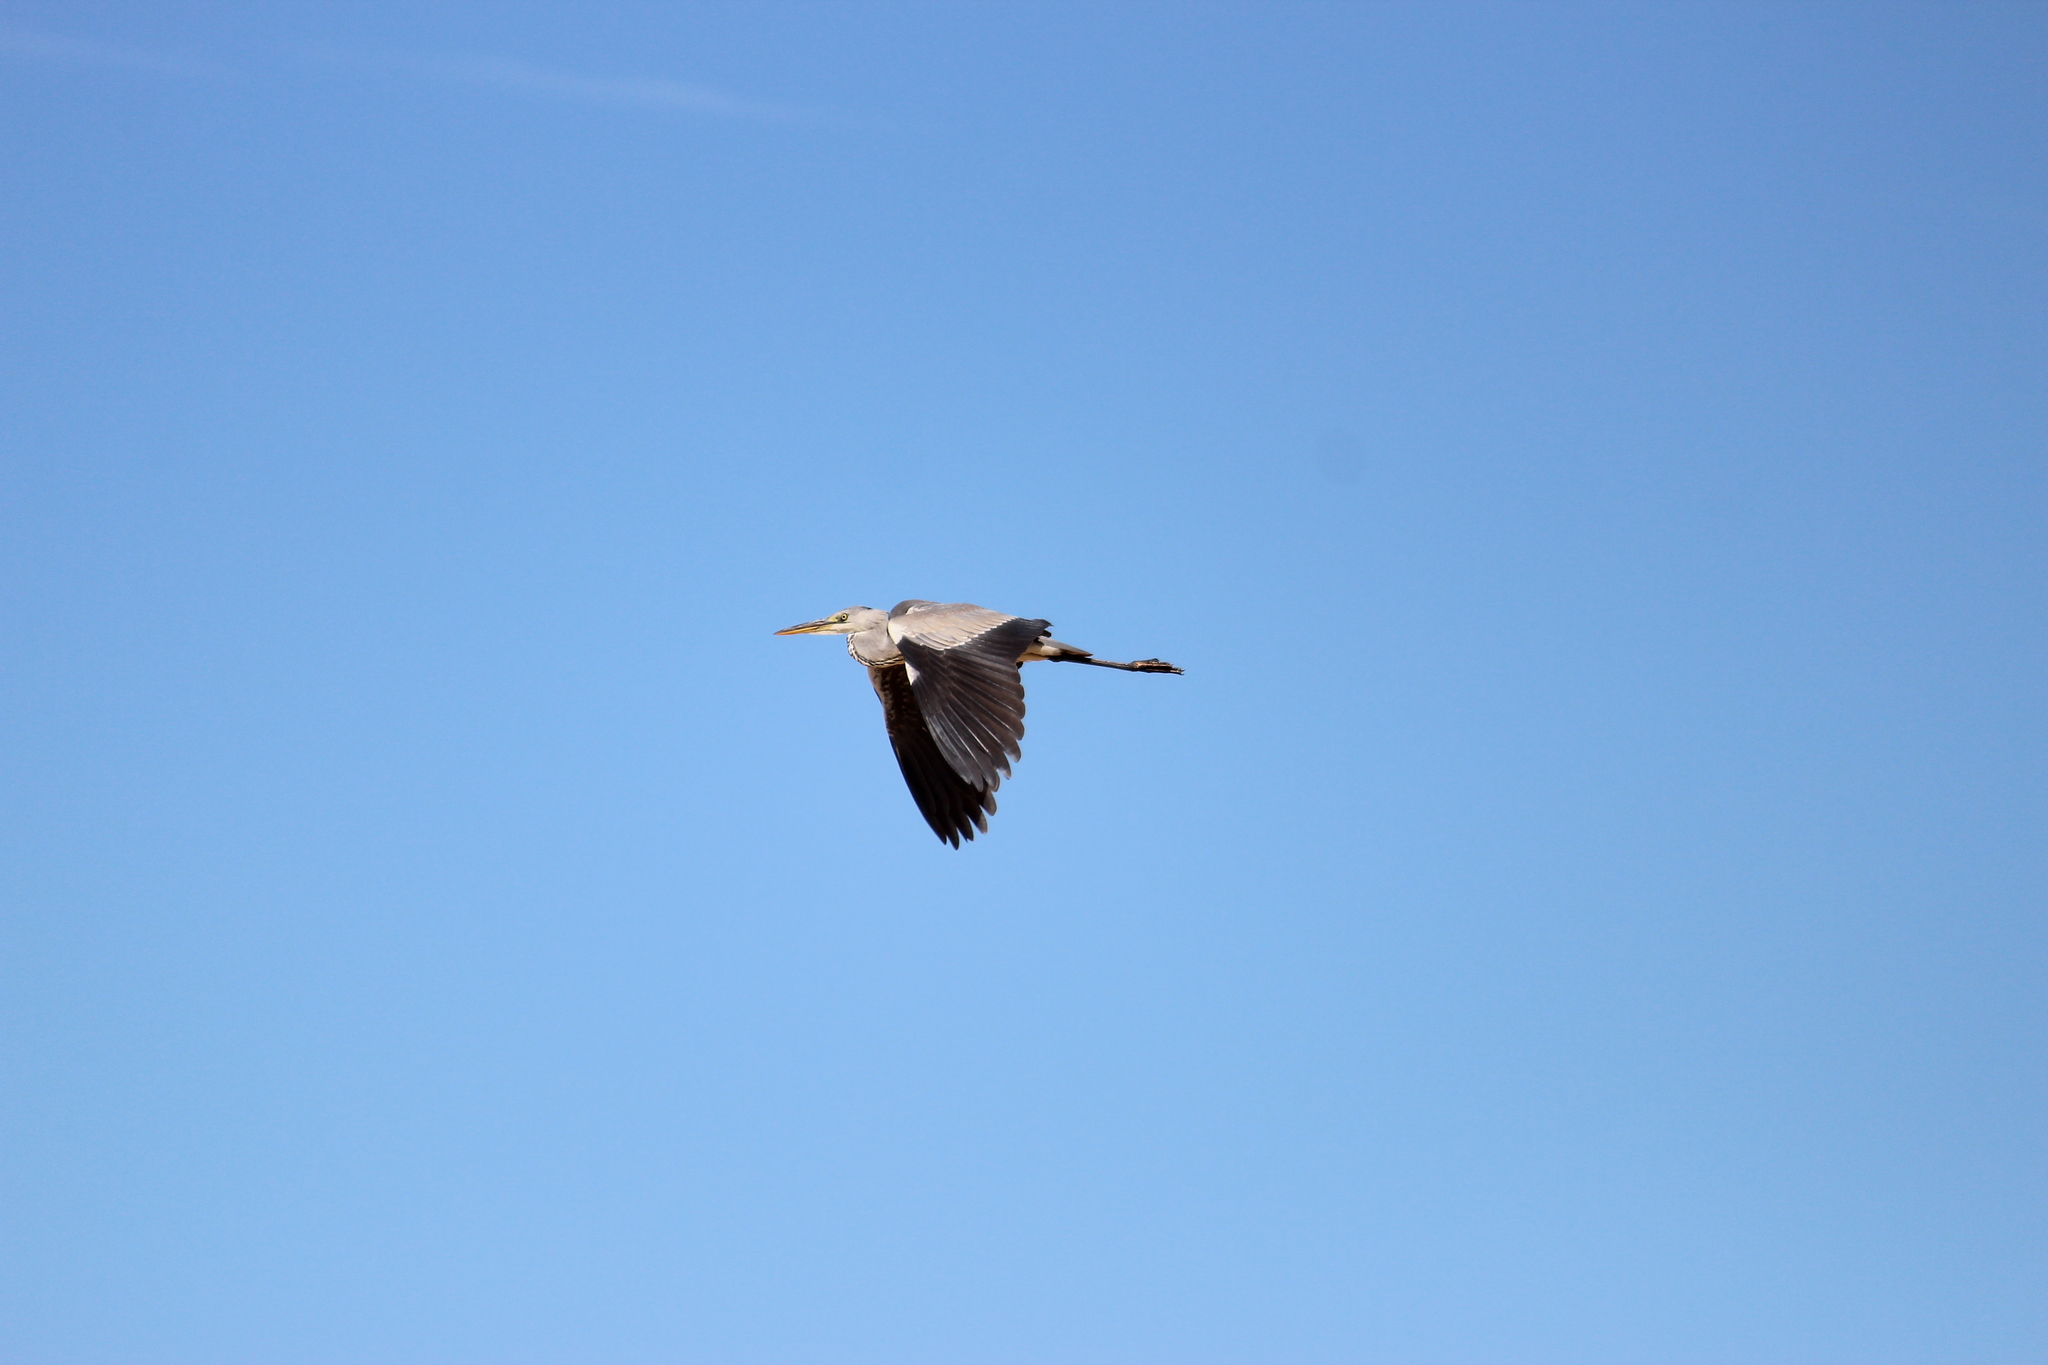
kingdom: Animalia
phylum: Chordata
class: Aves
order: Pelecaniformes
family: Ardeidae
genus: Ardea
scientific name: Ardea cinerea
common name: Grey heron
